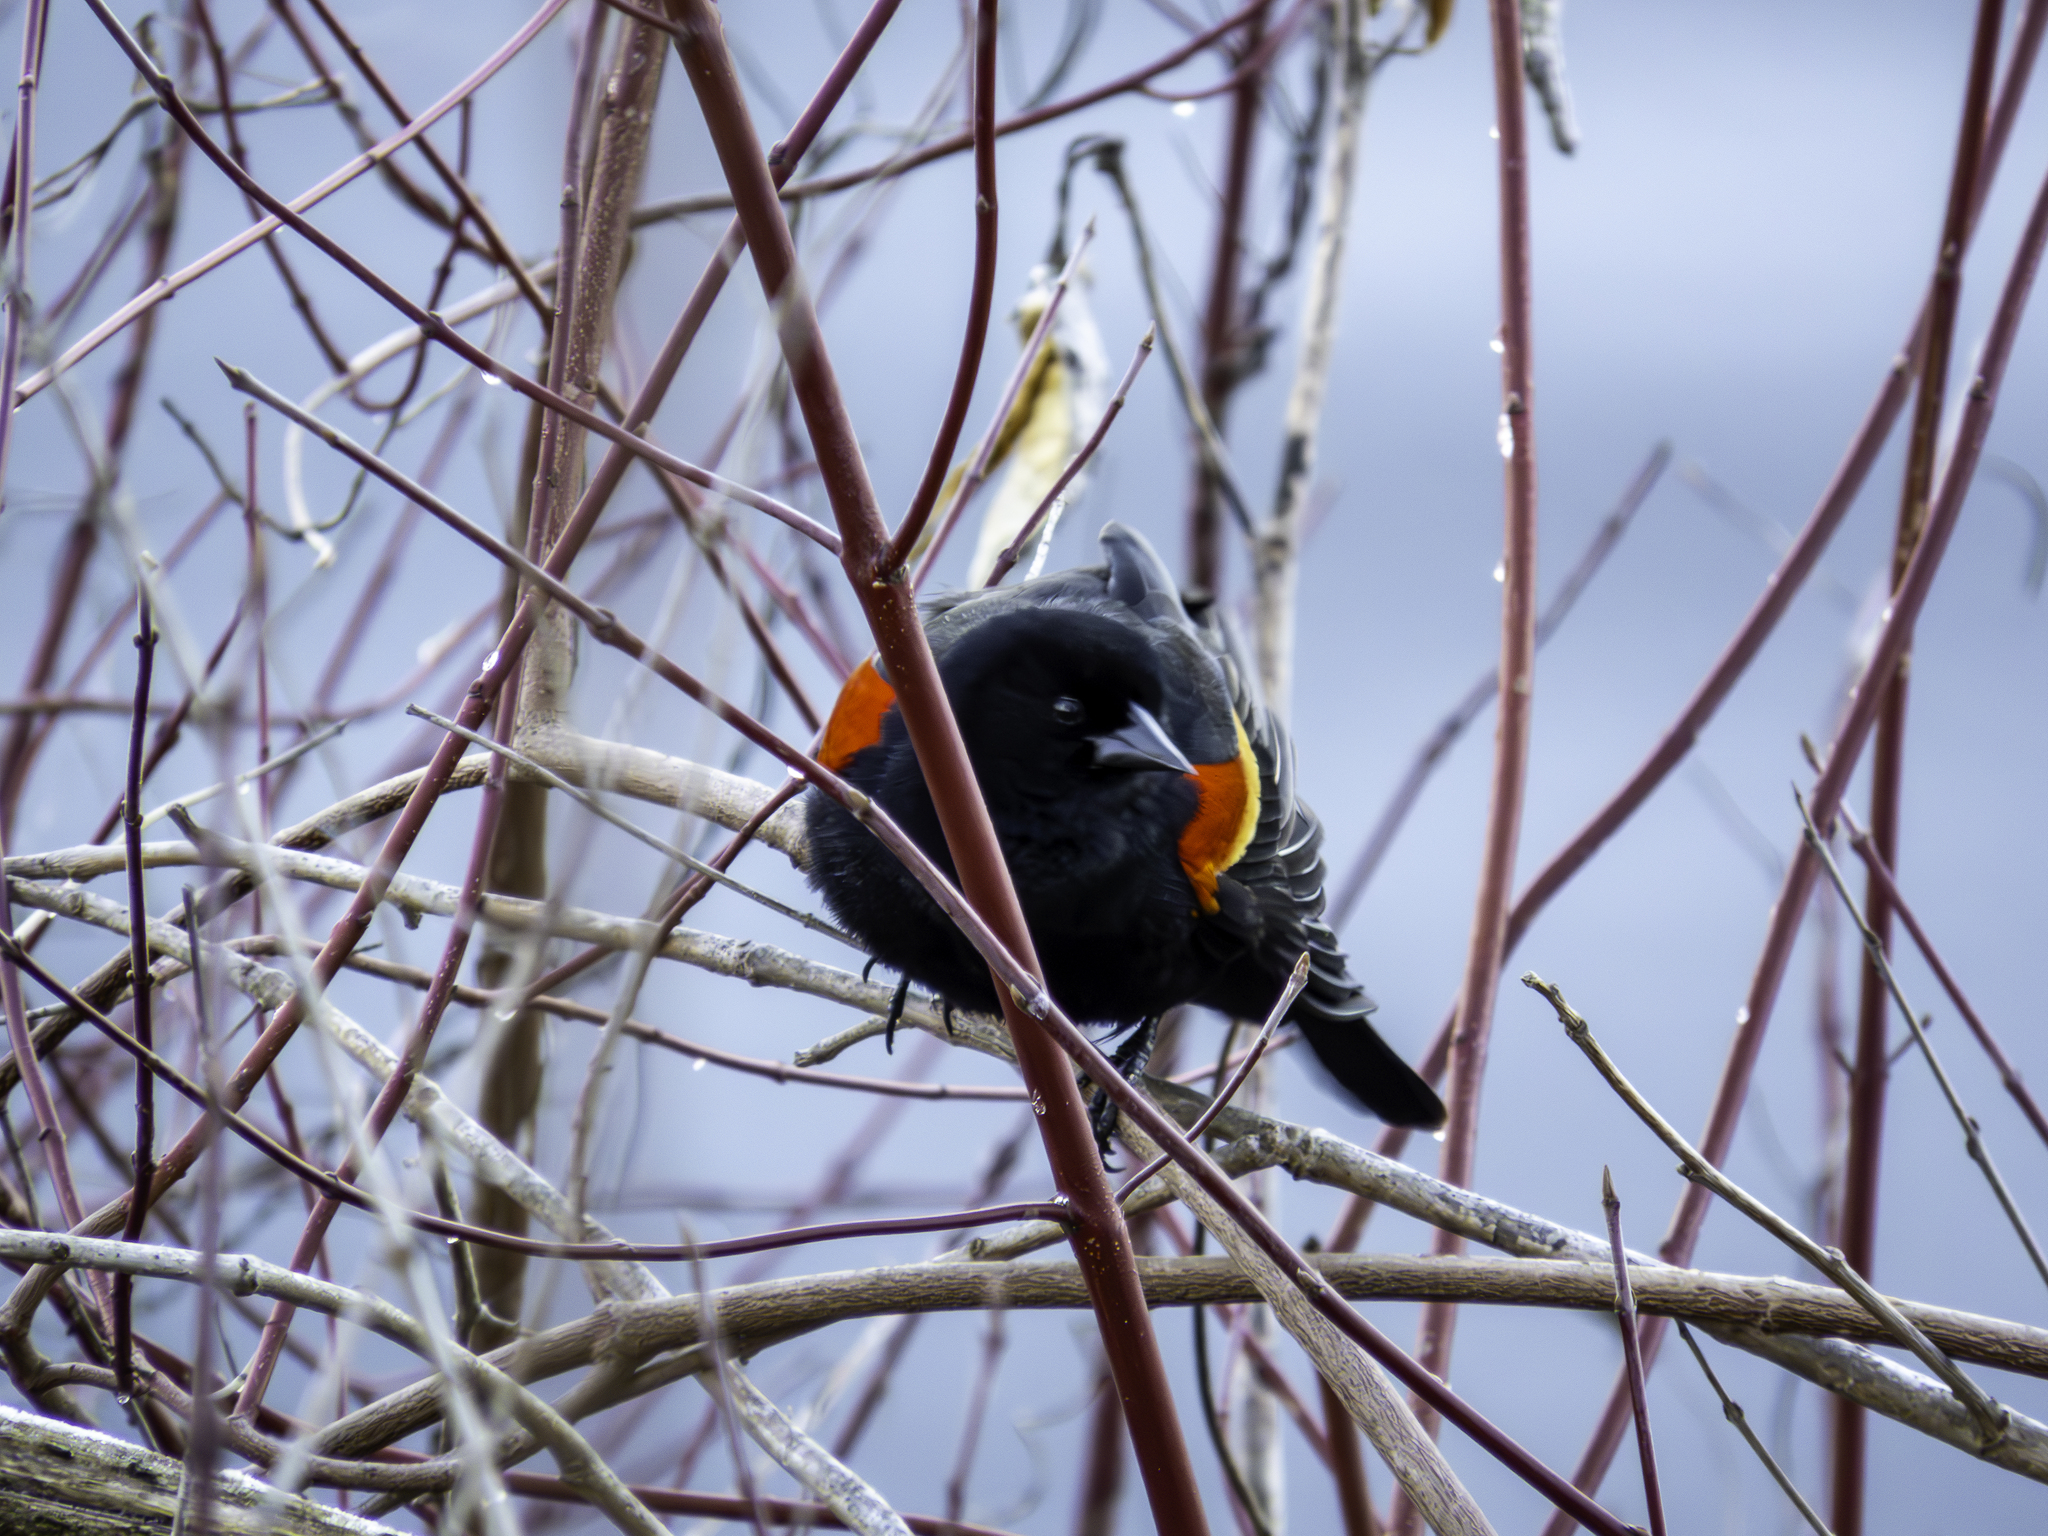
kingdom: Animalia
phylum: Chordata
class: Aves
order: Passeriformes
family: Icteridae
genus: Agelaius
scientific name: Agelaius phoeniceus
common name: Red-winged blackbird
